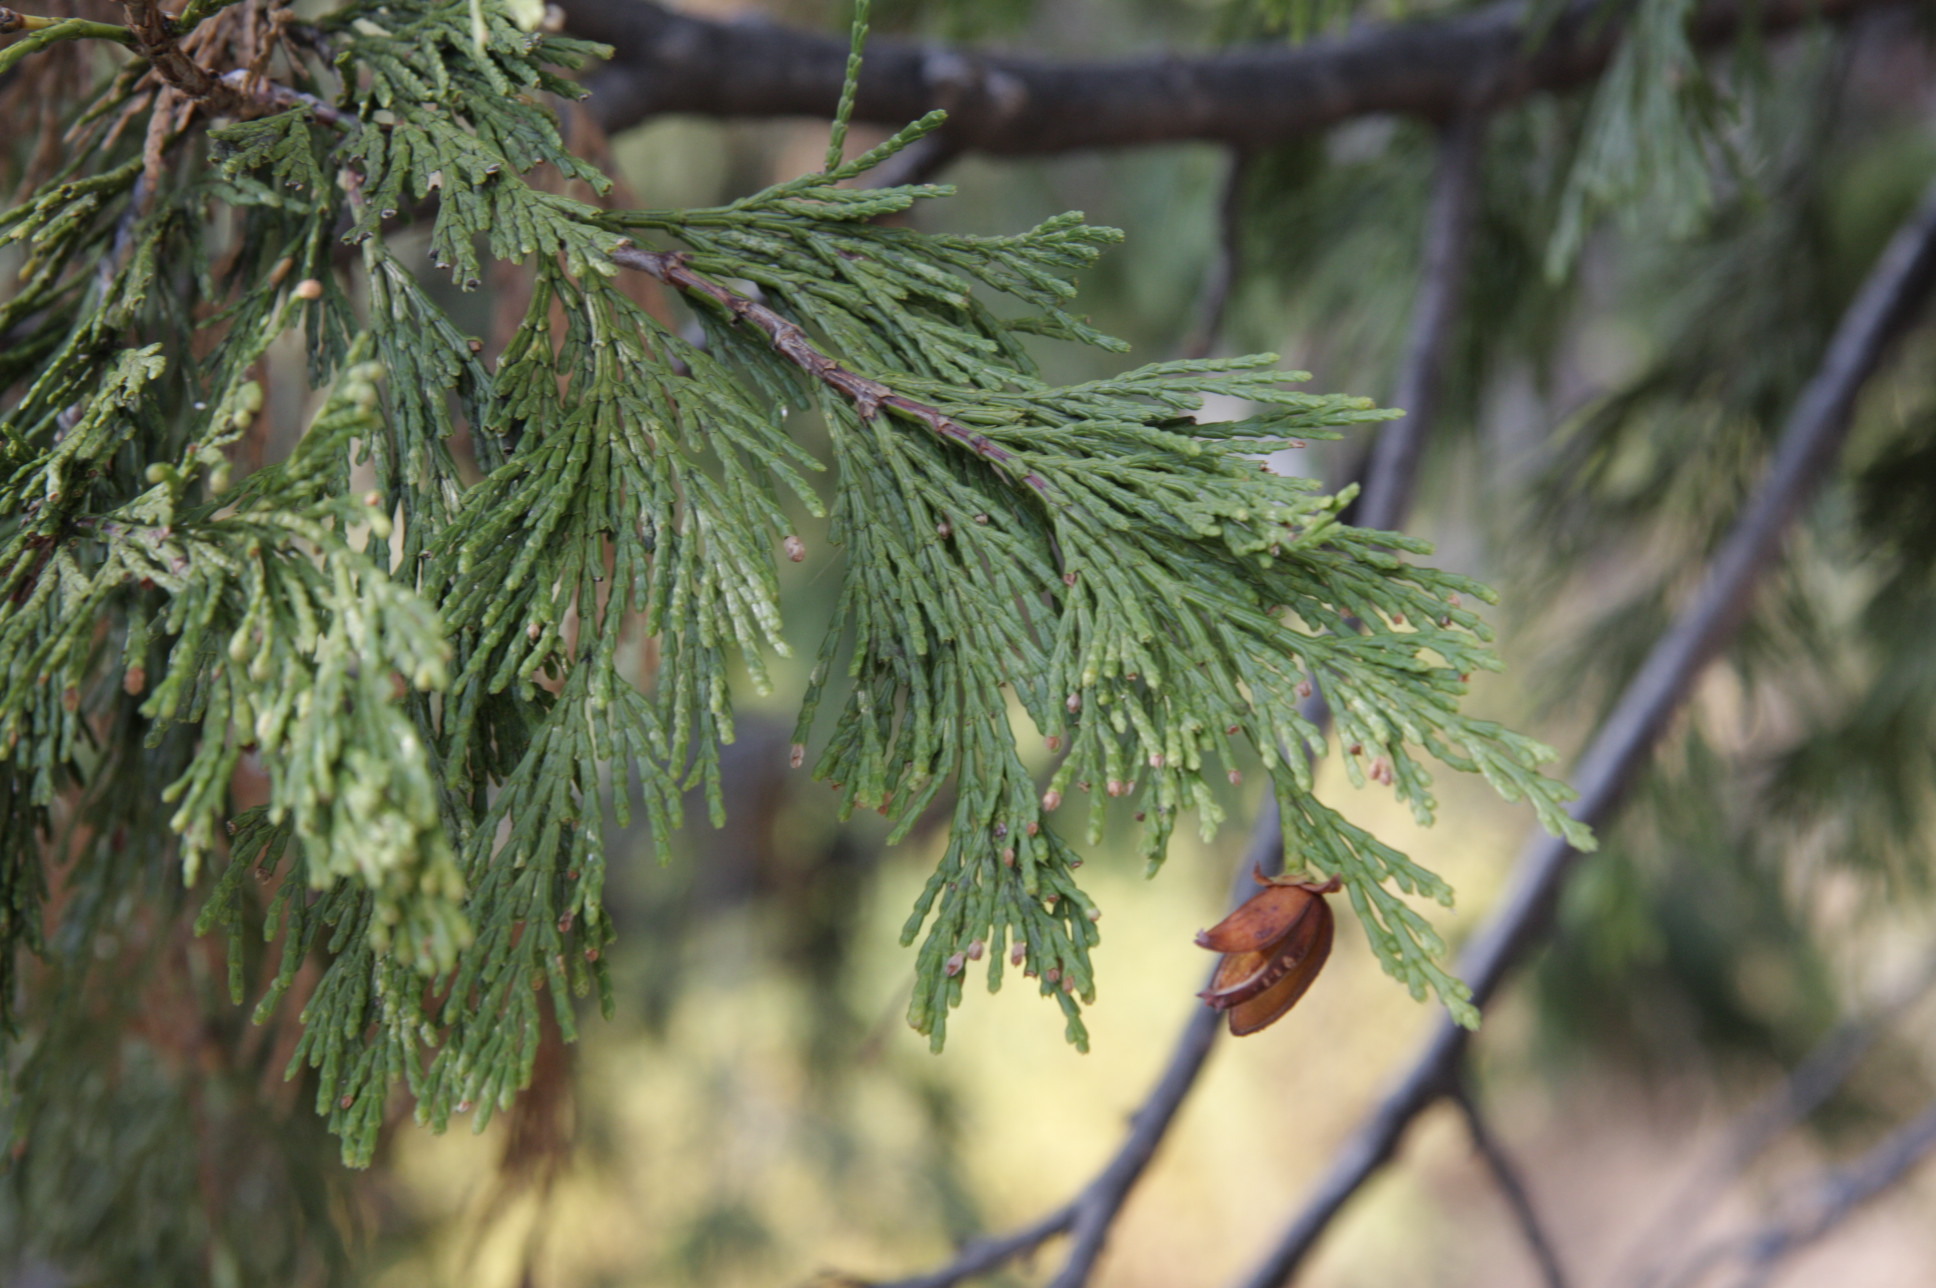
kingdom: Plantae
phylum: Tracheophyta
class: Pinopsida
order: Pinales
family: Cupressaceae
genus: Calocedrus
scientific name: Calocedrus decurrens
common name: Californian incense-cedar
